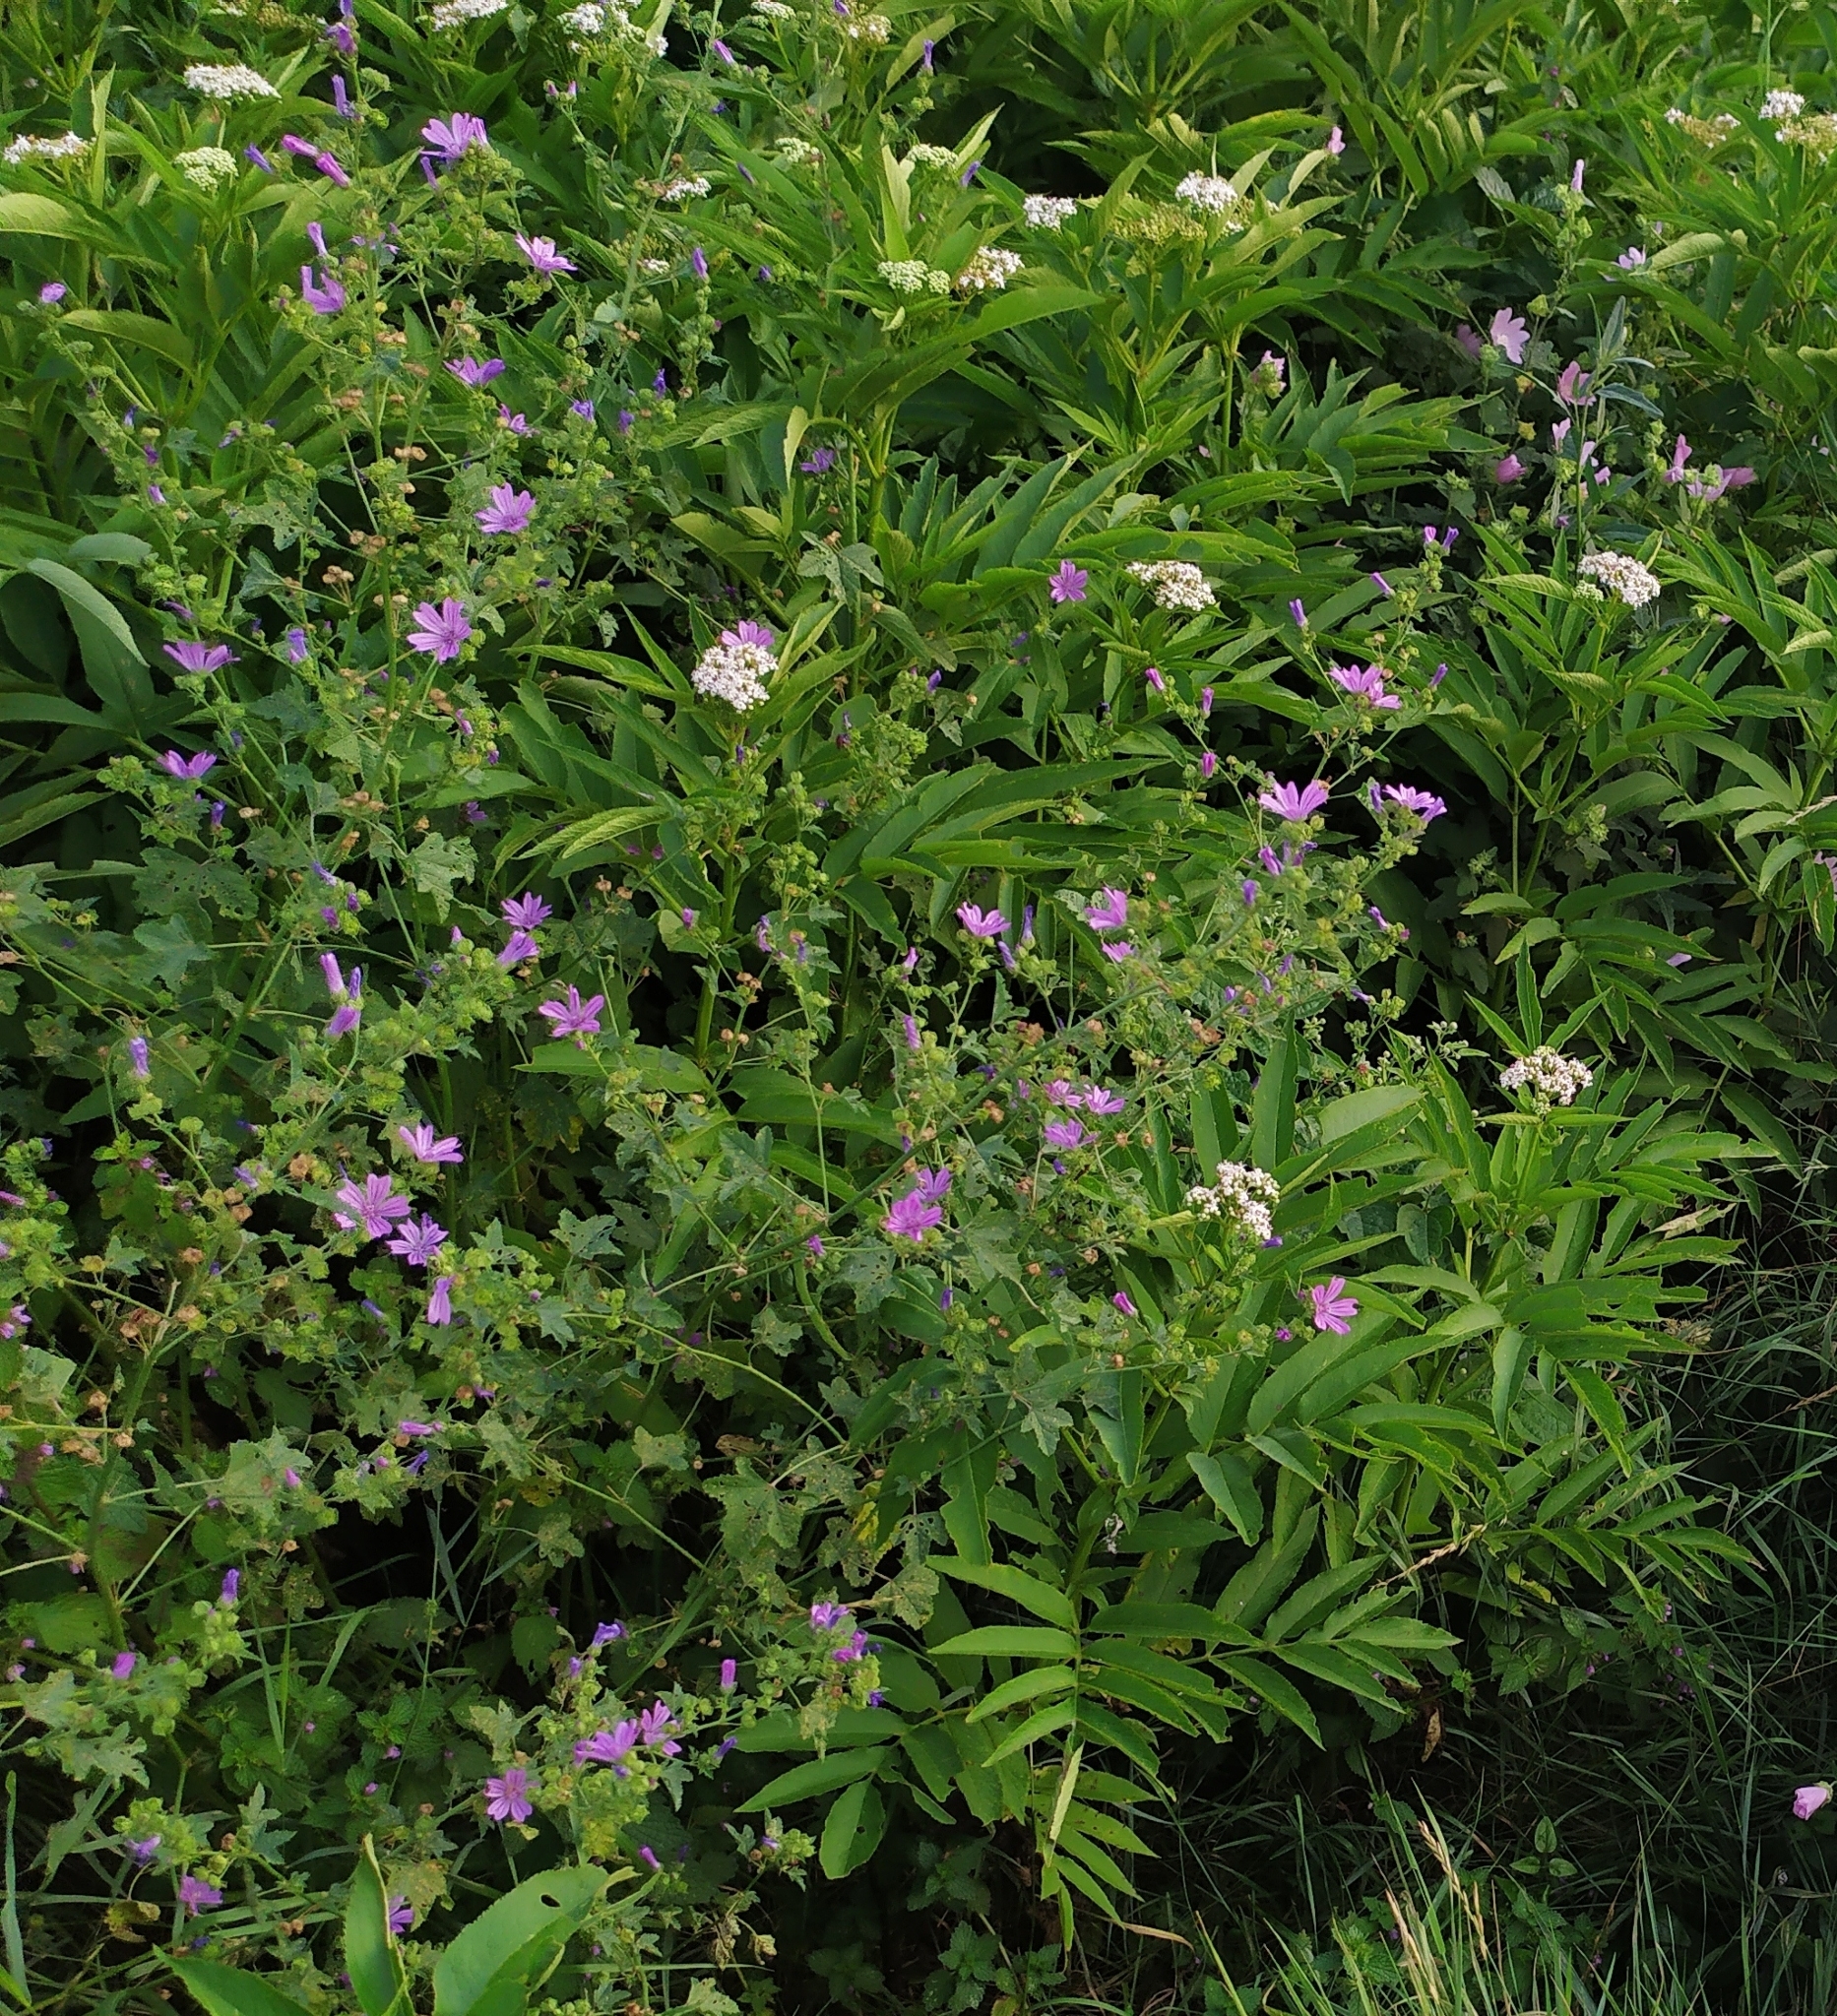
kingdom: Plantae
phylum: Tracheophyta
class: Magnoliopsida
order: Malvales
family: Malvaceae
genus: Malva
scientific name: Malva sylvestris
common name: Common mallow
